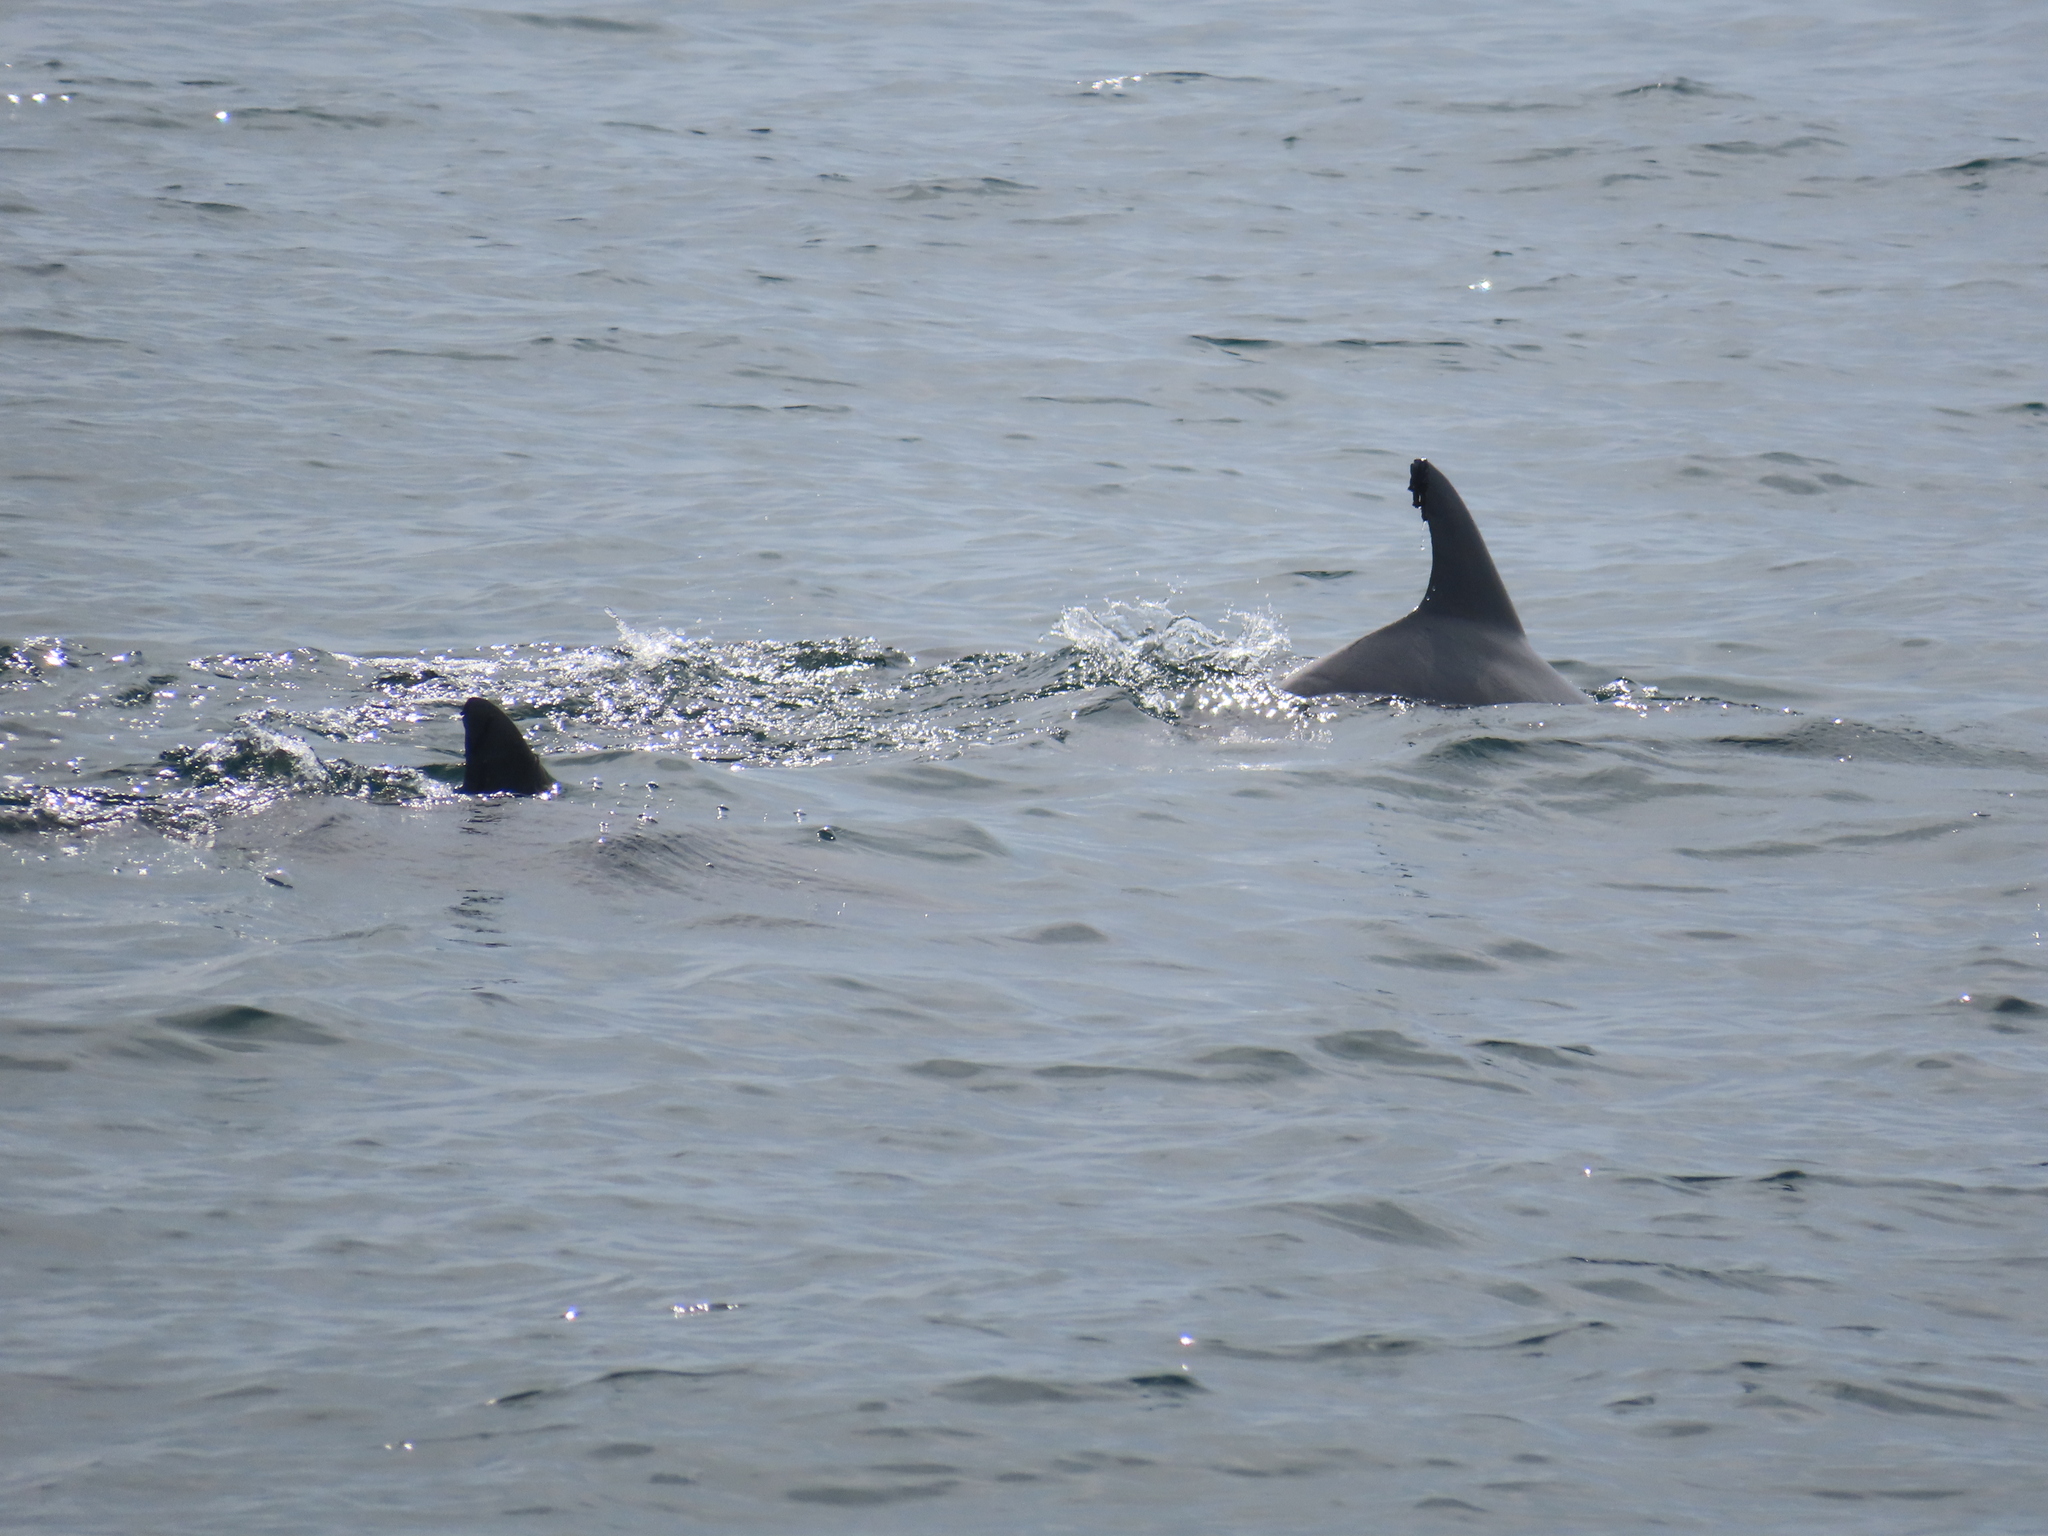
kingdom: Animalia
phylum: Chordata
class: Mammalia
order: Cetacea
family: Delphinidae
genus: Tursiops
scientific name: Tursiops truncatus
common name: Bottlenose dolphin
